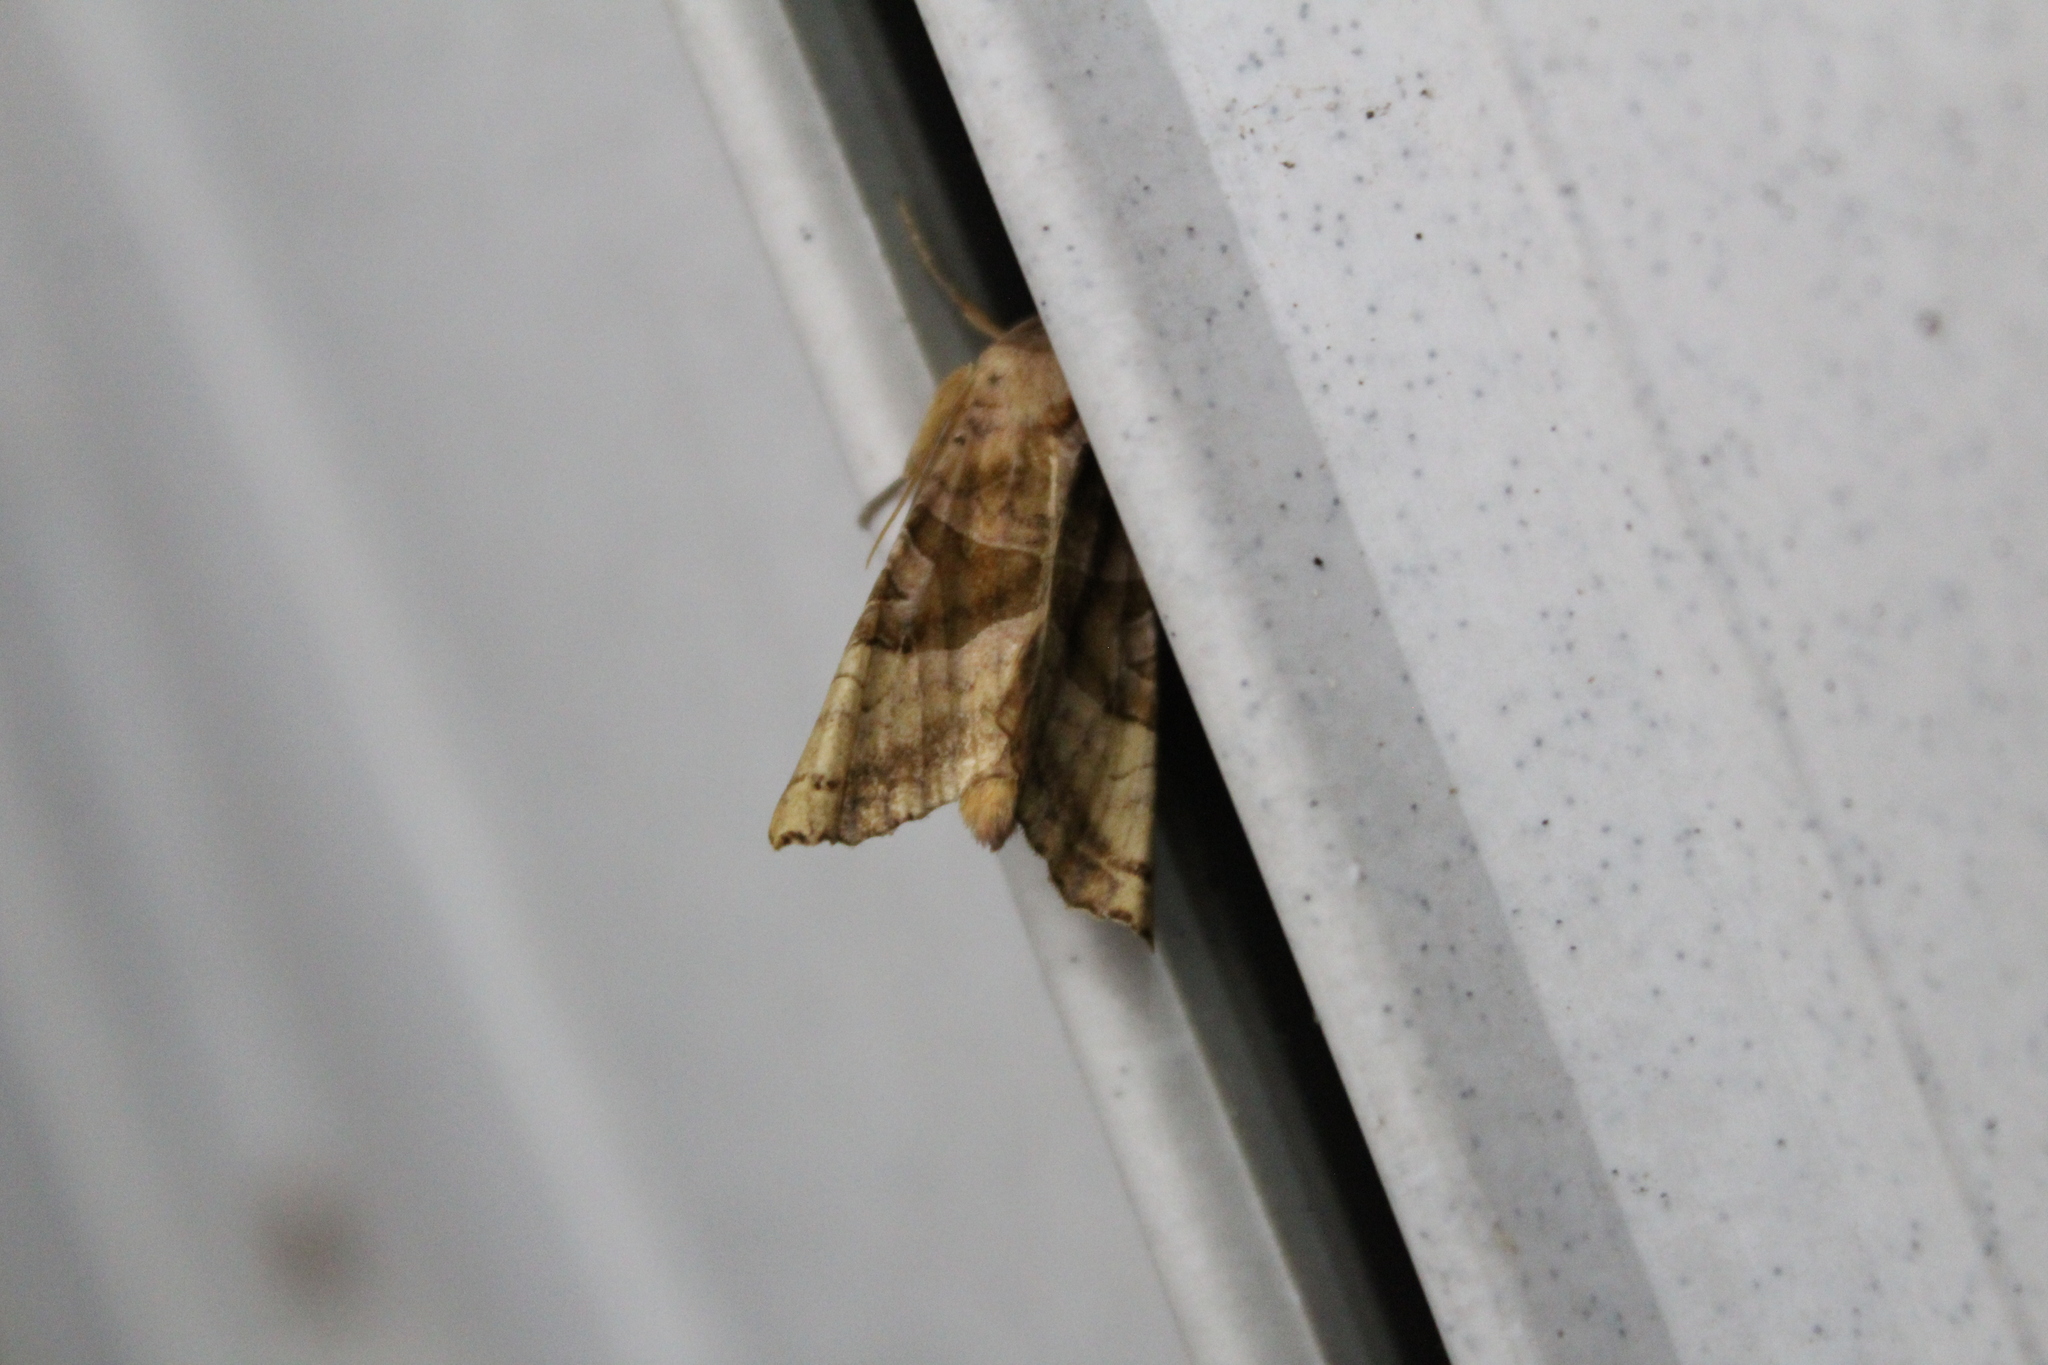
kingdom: Animalia
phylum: Arthropoda
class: Insecta
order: Lepidoptera
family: Noctuidae
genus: Phlogophora
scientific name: Phlogophora periculosa
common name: Brown angle shades
